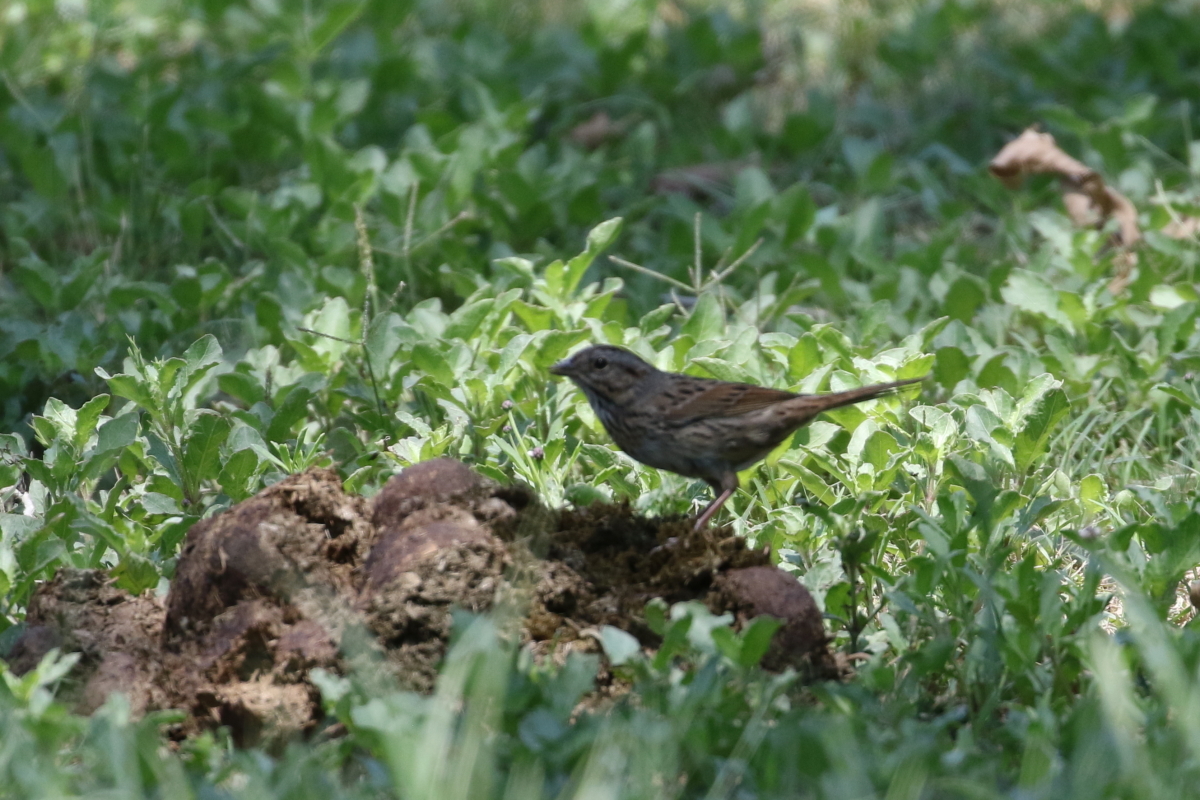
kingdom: Animalia
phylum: Chordata
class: Aves
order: Passeriformes
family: Passerellidae
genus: Melospiza
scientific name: Melospiza lincolnii
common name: Lincoln's sparrow
